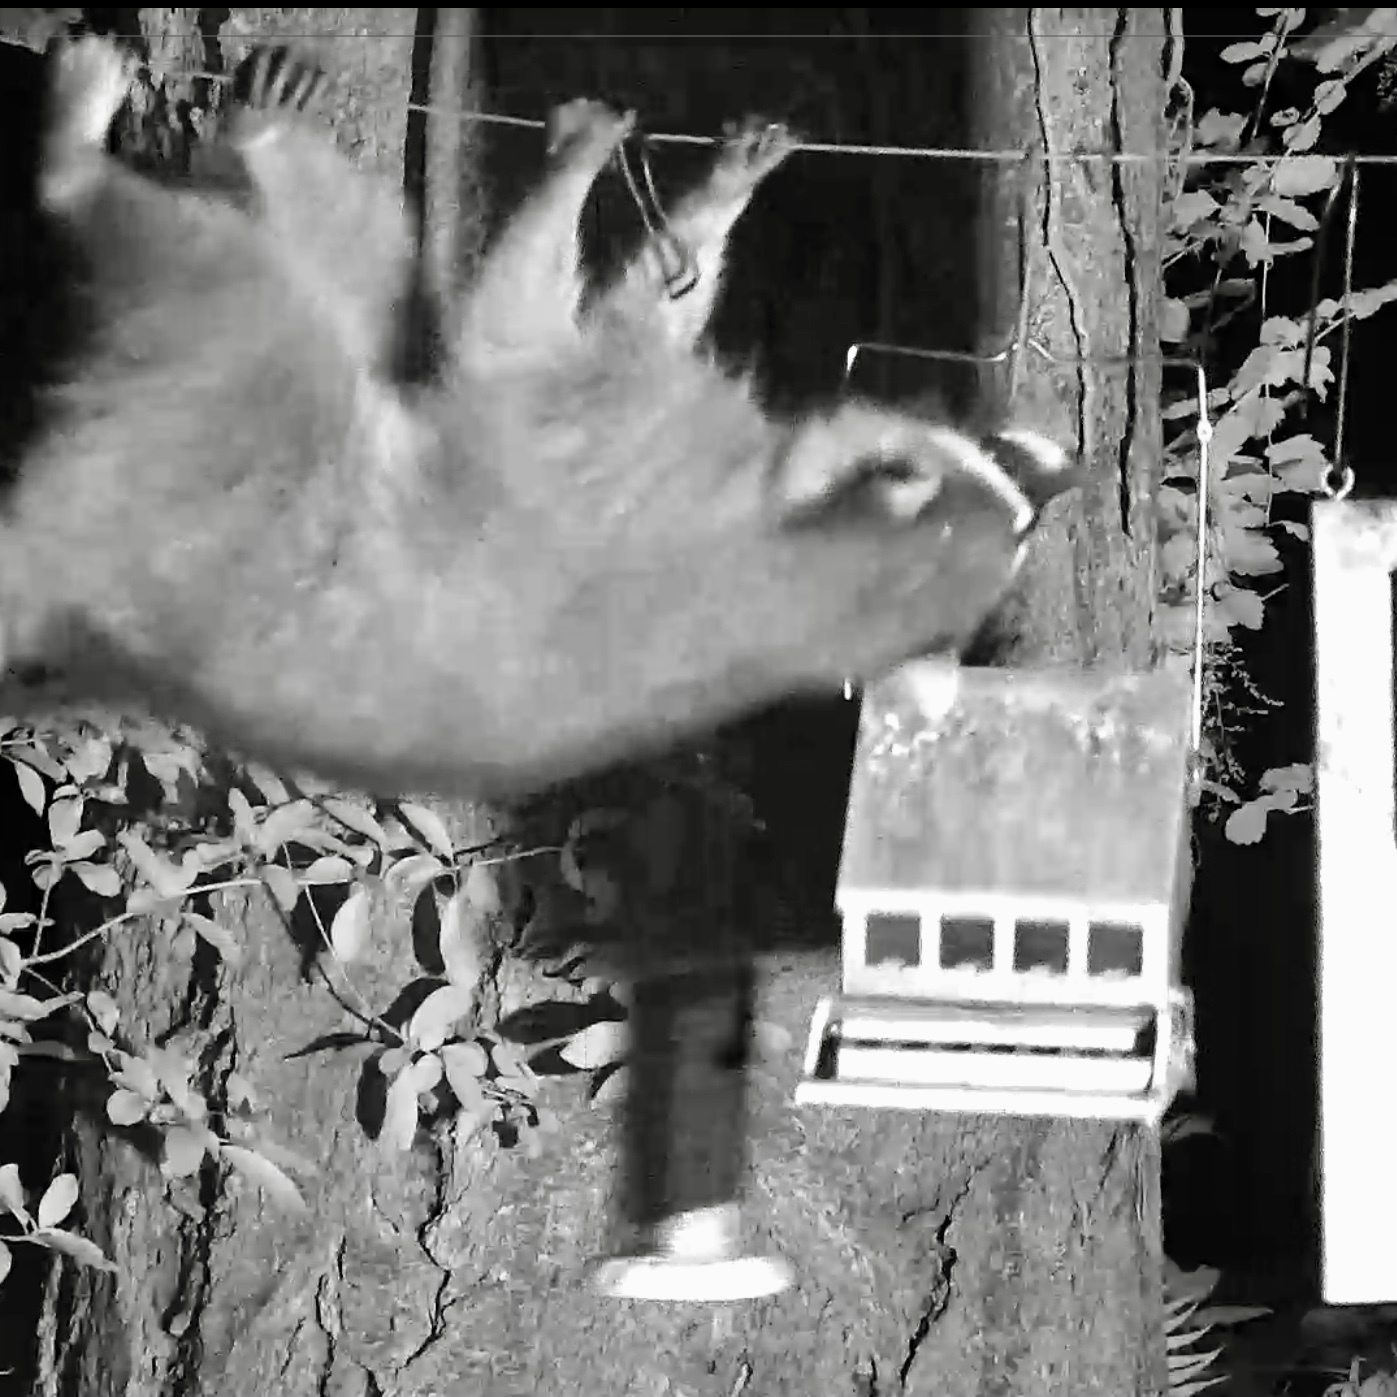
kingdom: Animalia
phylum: Chordata
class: Mammalia
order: Carnivora
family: Procyonidae
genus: Procyon
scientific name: Procyon lotor
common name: Raccoon
